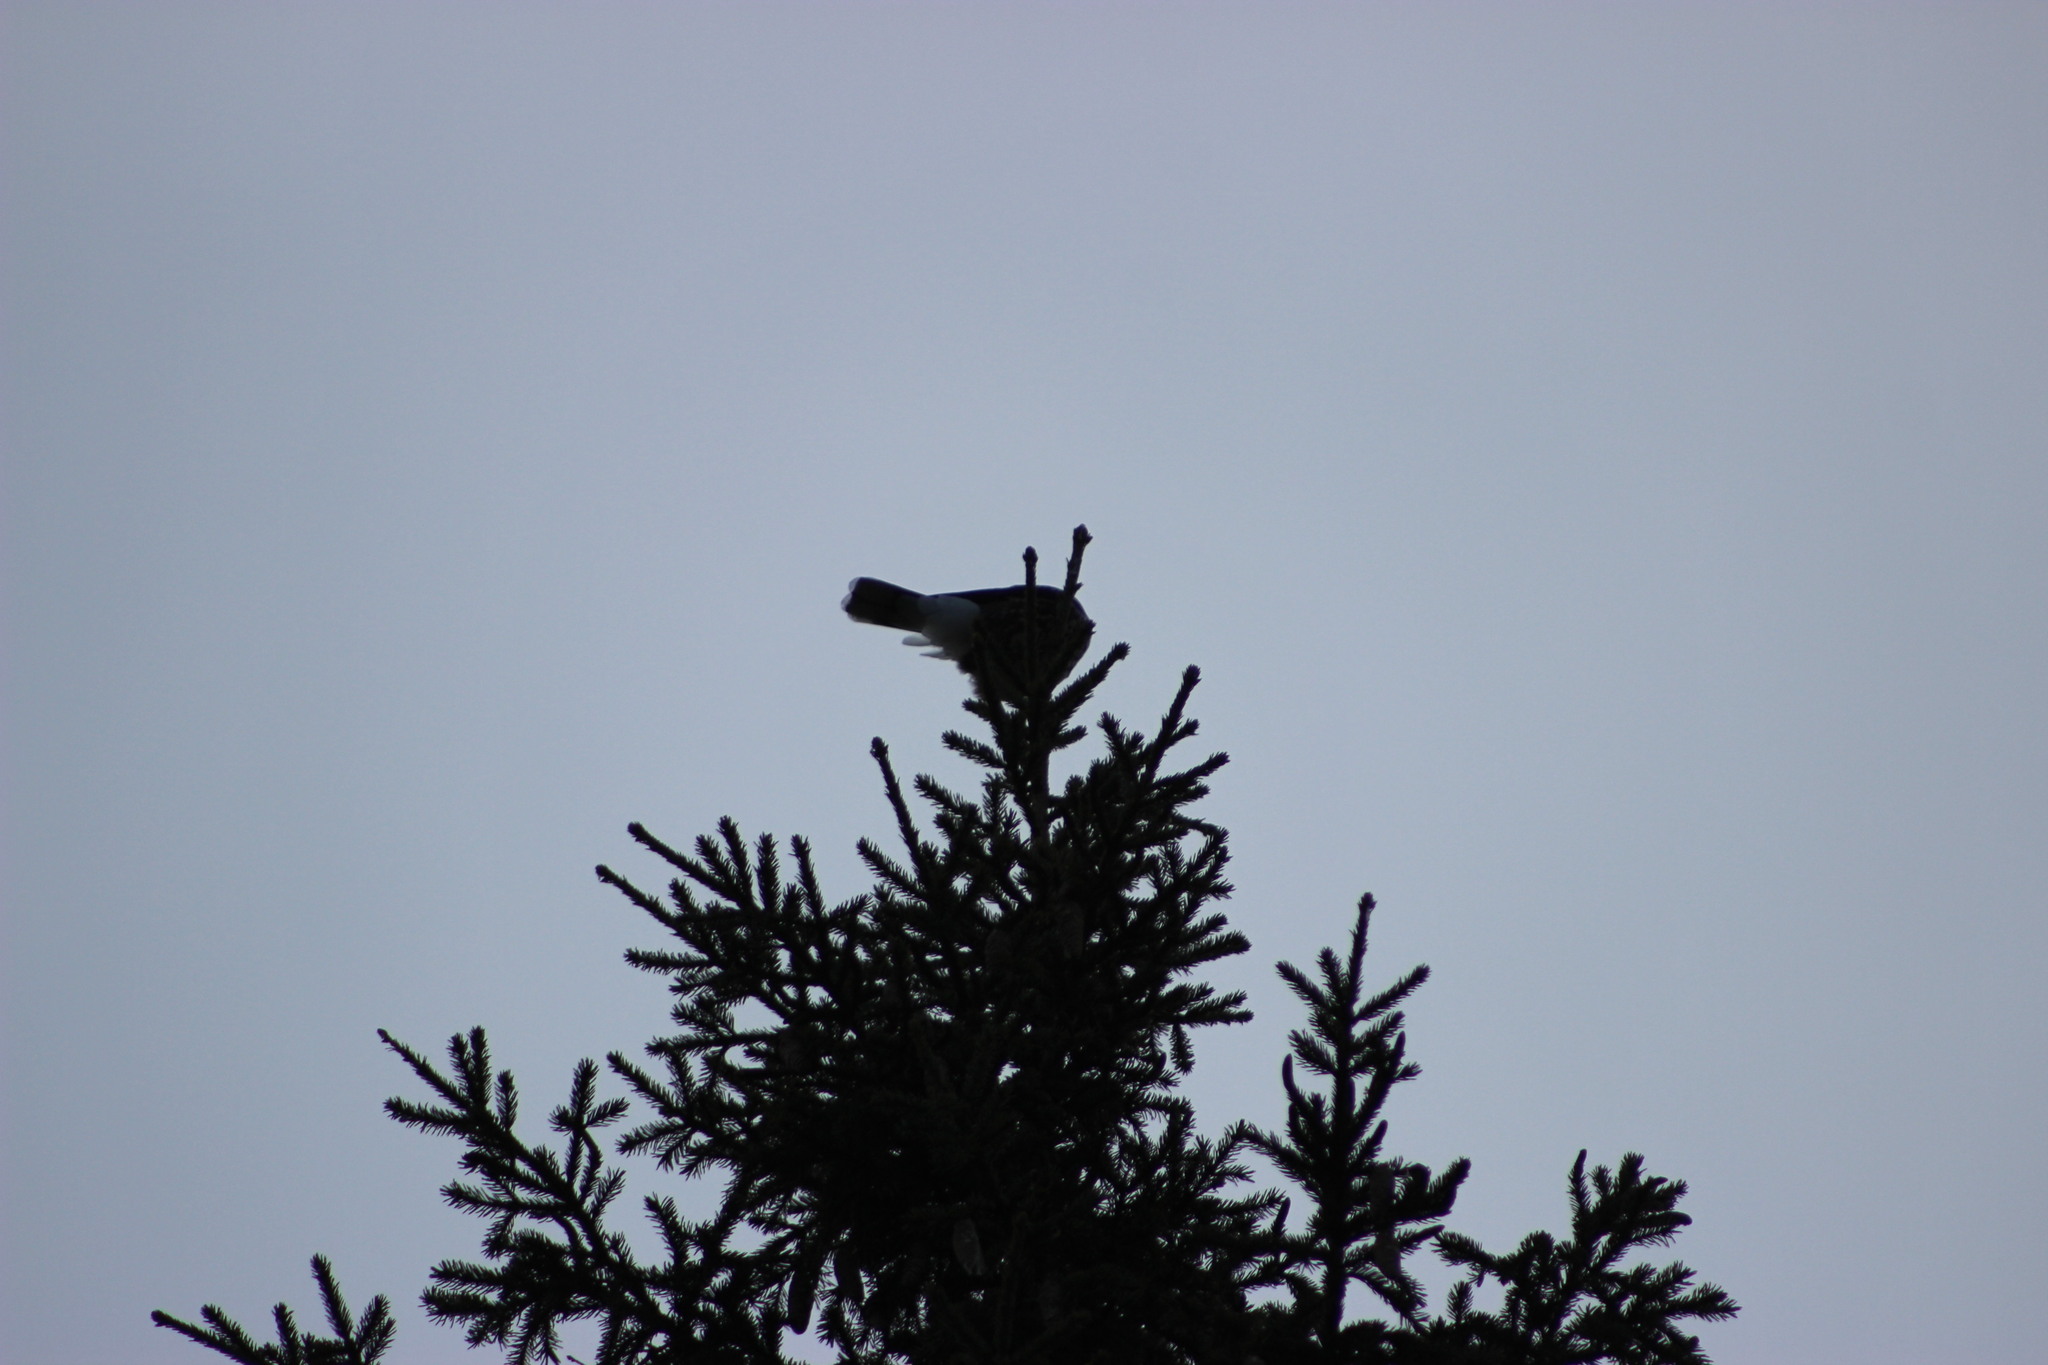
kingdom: Animalia
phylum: Chordata
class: Aves
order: Passeriformes
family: Corvidae
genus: Nucifraga
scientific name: Nucifraga caryocatactes
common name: Spotted nutcracker
